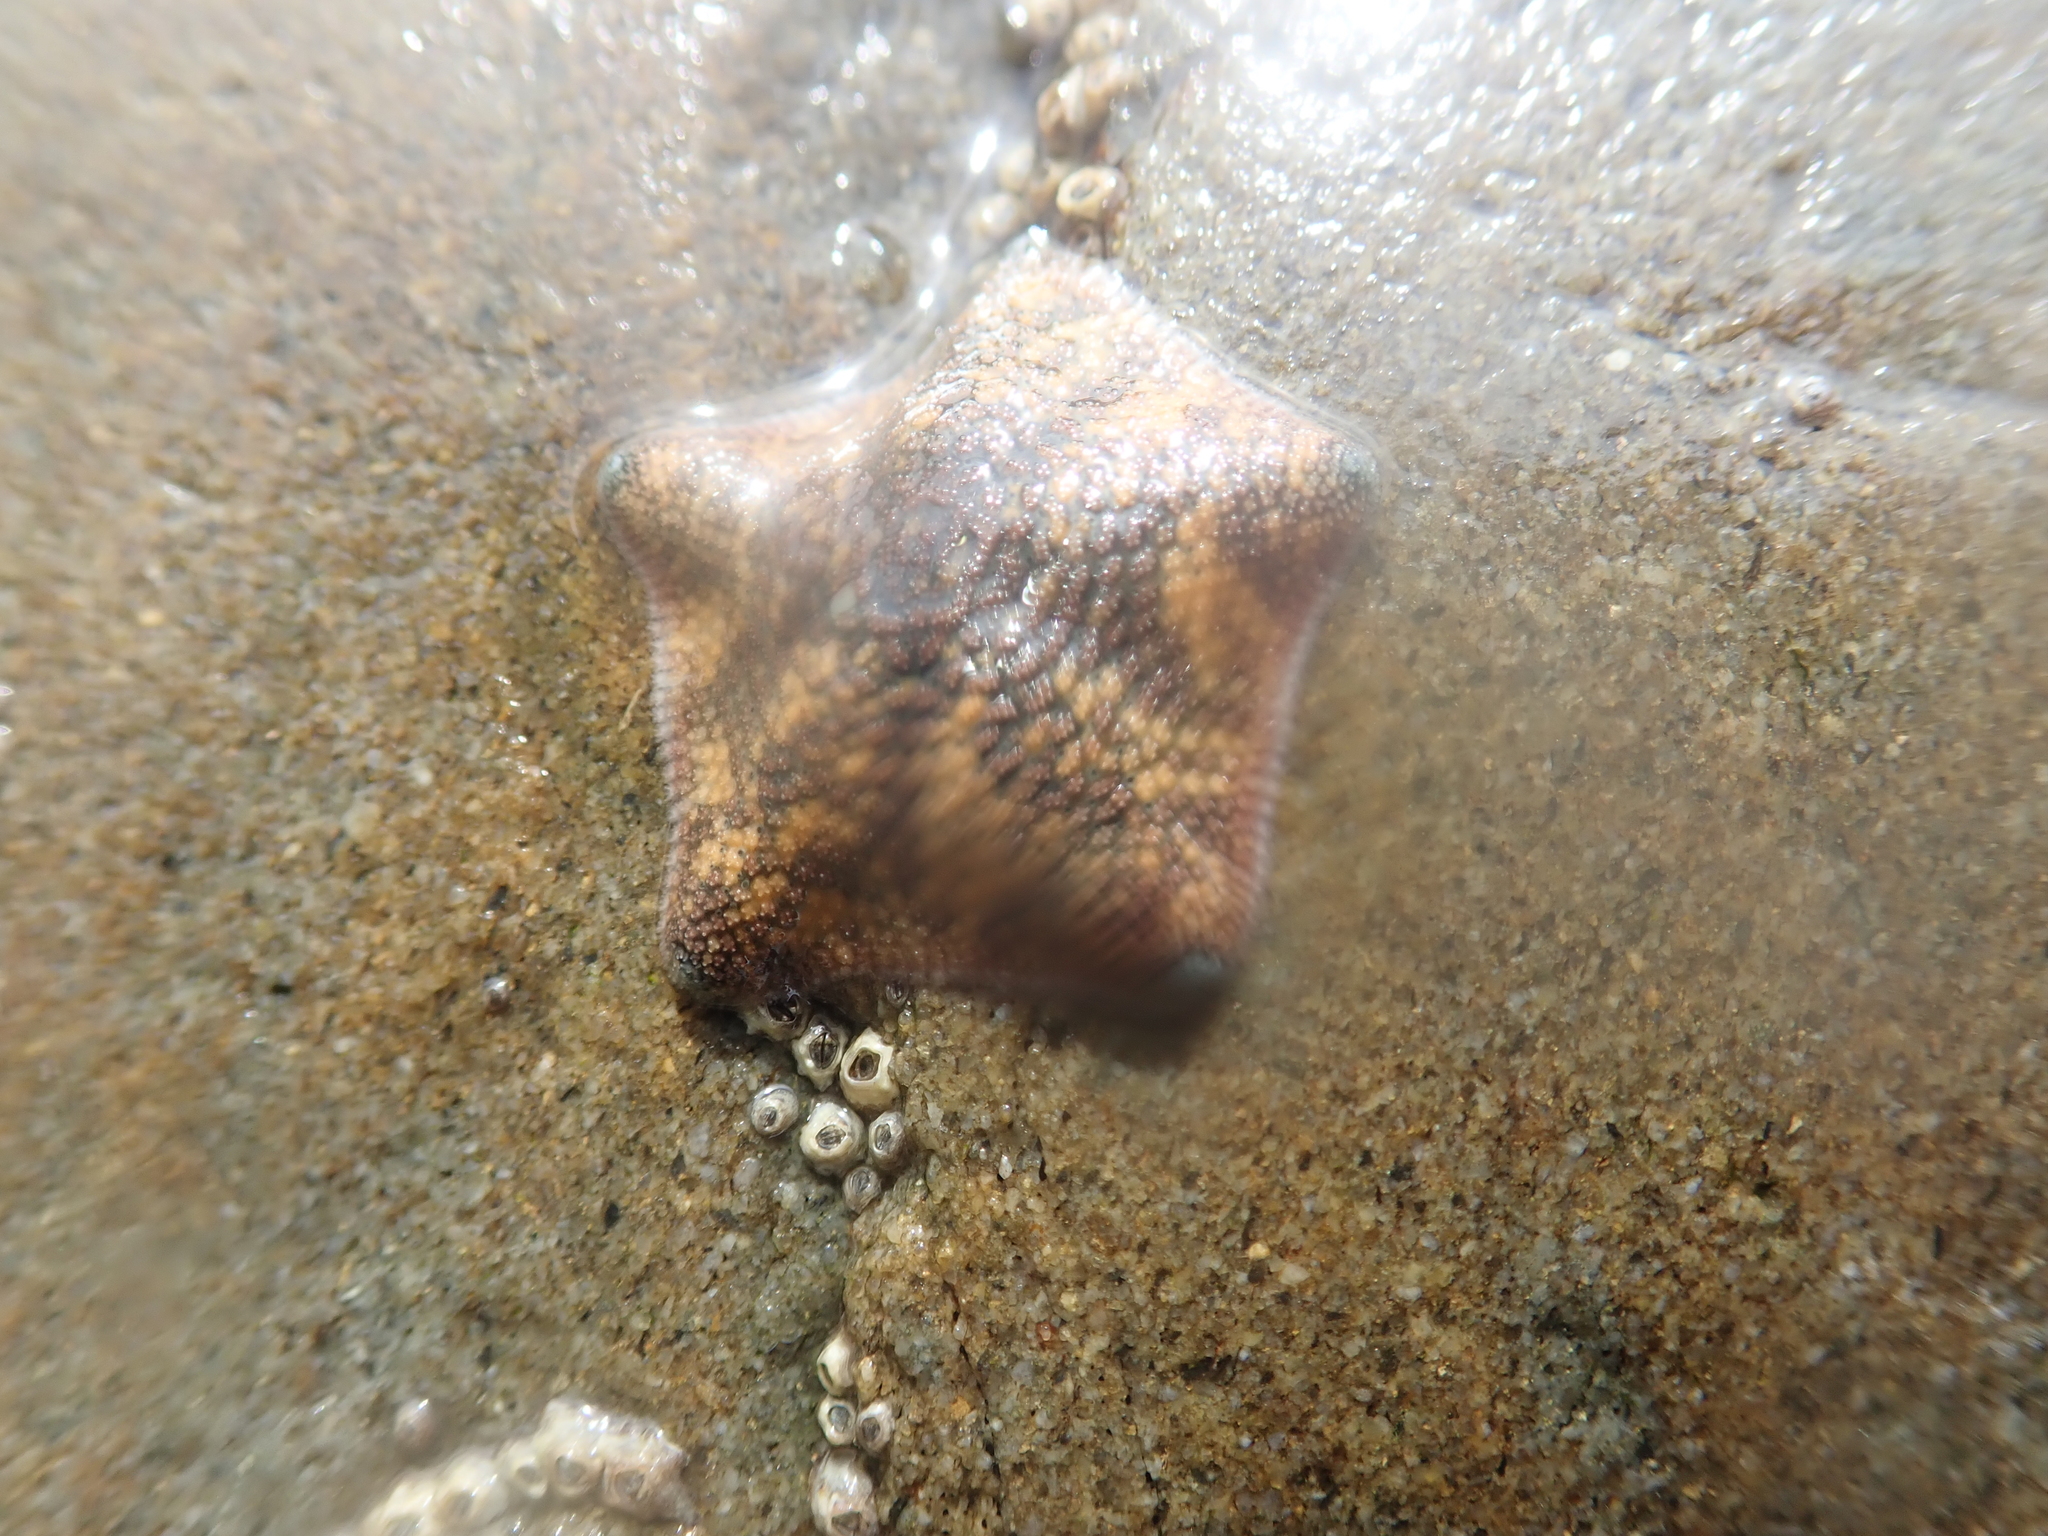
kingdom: Animalia
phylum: Echinodermata
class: Asteroidea
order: Valvatida
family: Asterinidae
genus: Patiriella
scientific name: Patiriella regularis
